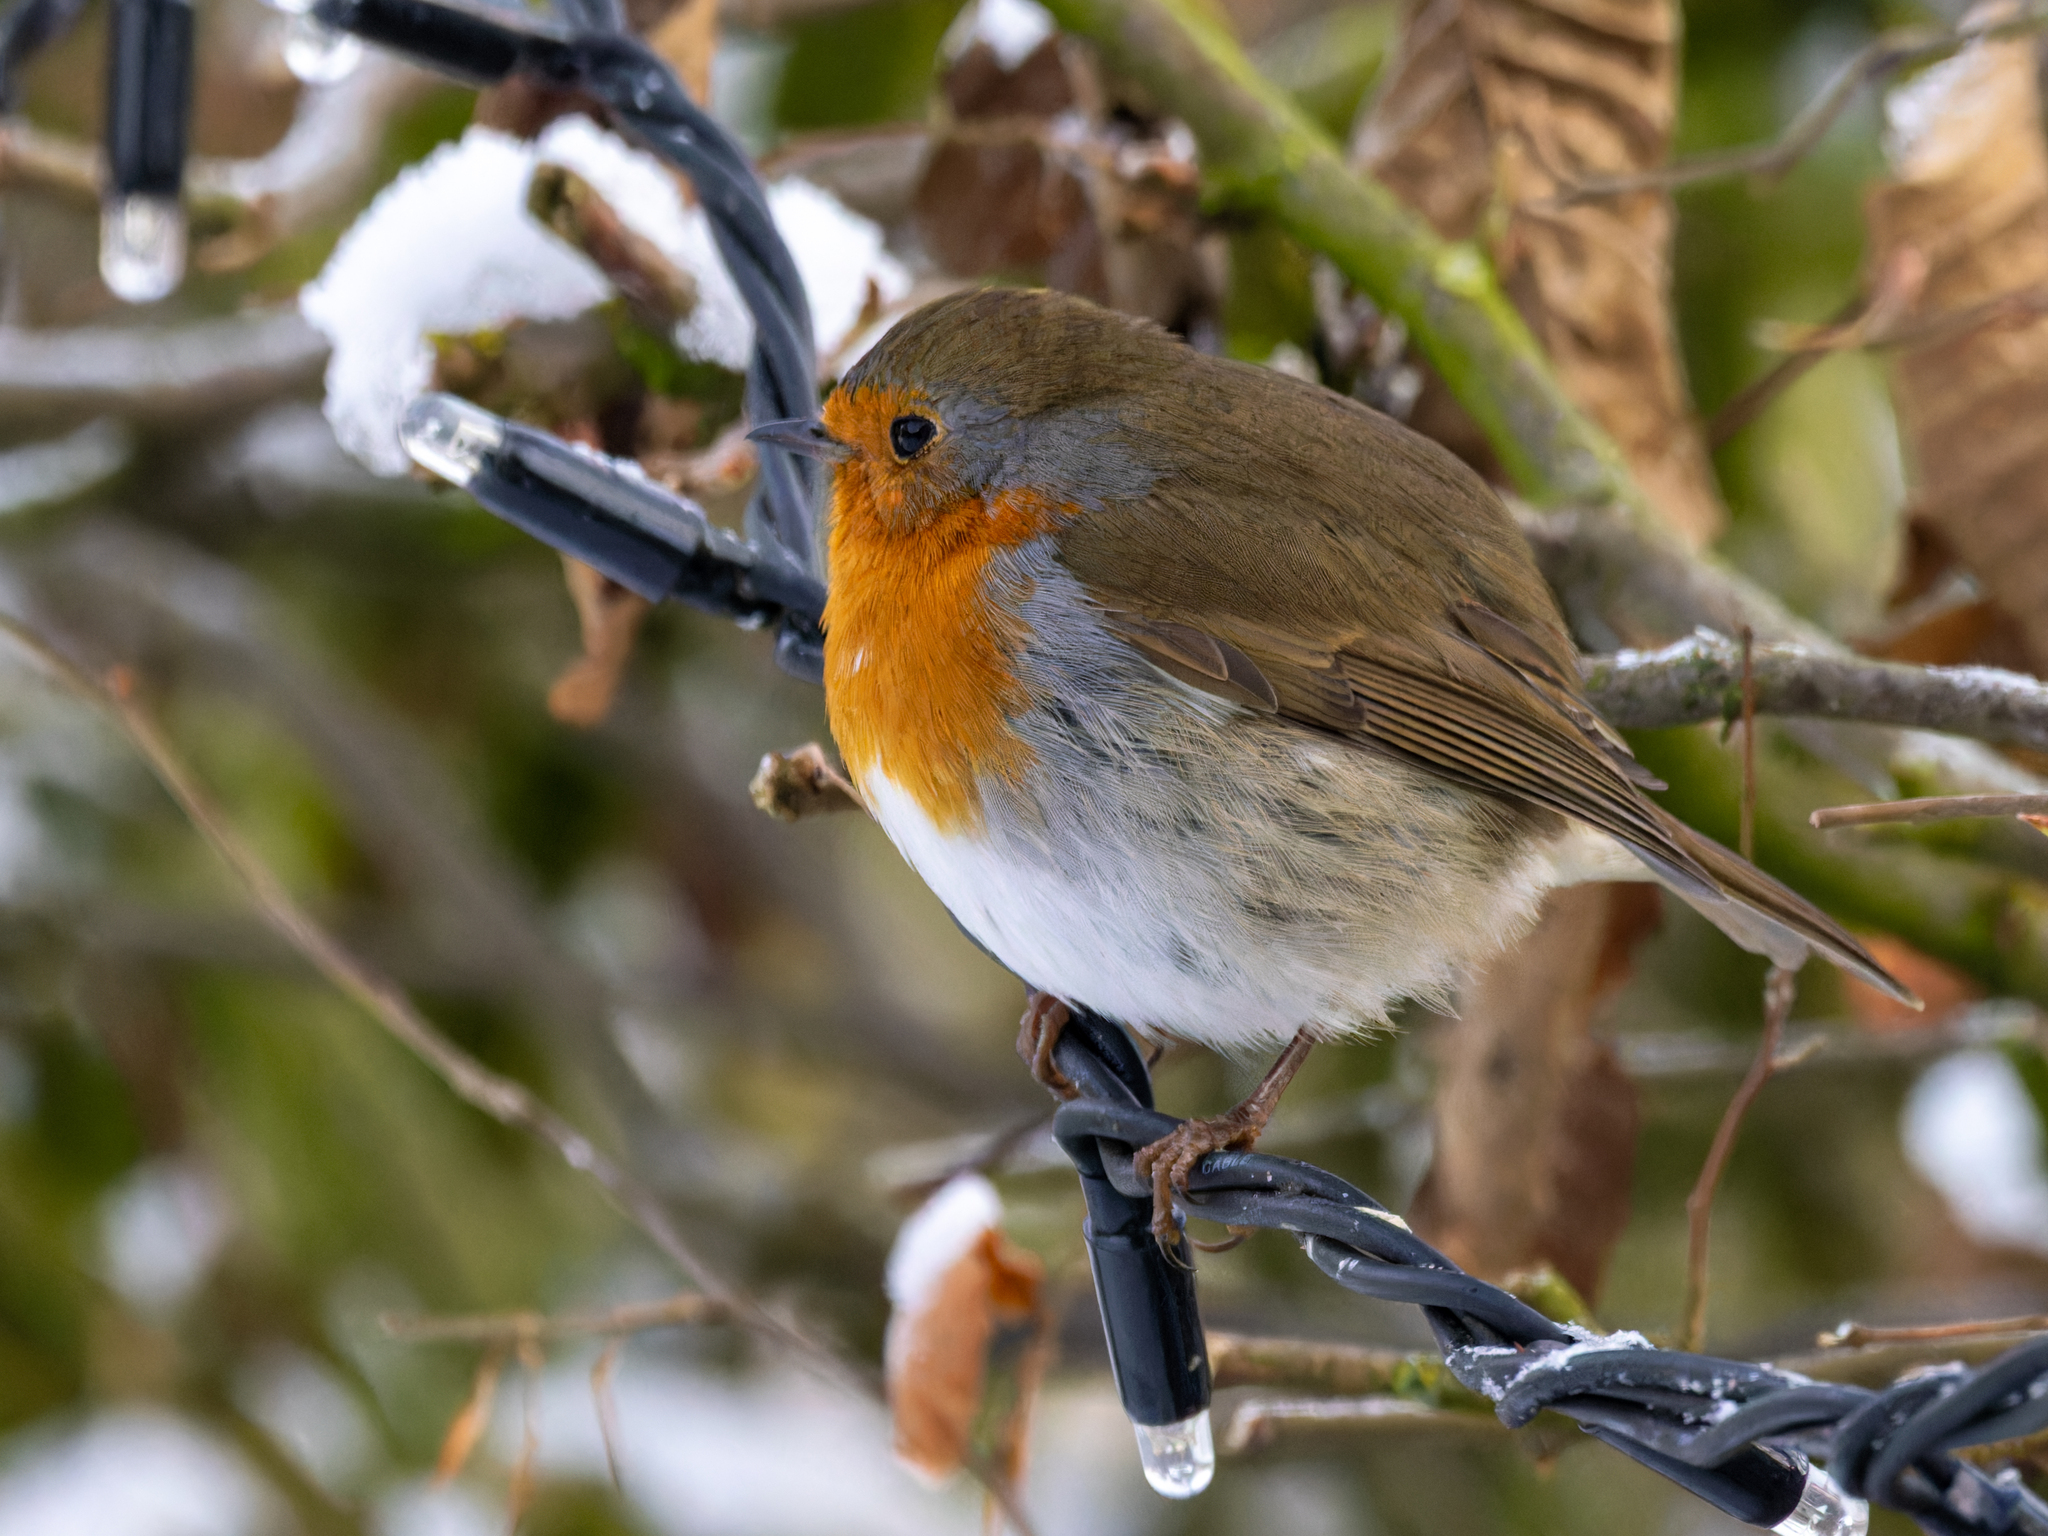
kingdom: Animalia
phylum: Chordata
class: Aves
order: Passeriformes
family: Muscicapidae
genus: Erithacus
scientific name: Erithacus rubecula
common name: European robin
